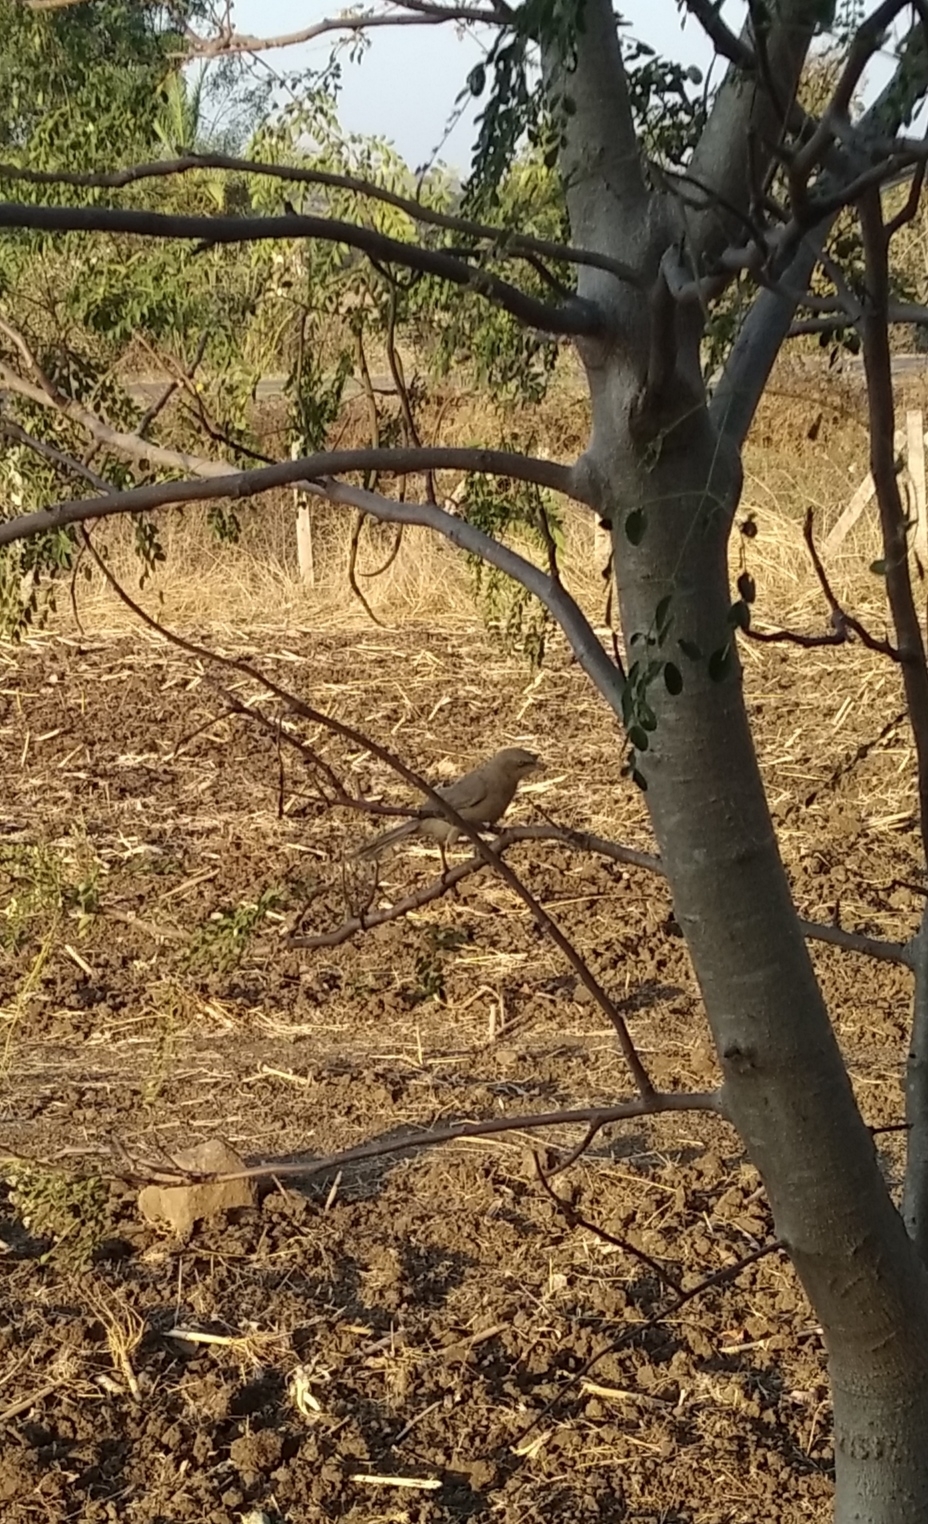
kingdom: Animalia
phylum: Chordata
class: Aves
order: Passeriformes
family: Leiothrichidae
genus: Turdoides
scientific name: Turdoides malcolmi
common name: Large grey babbler
